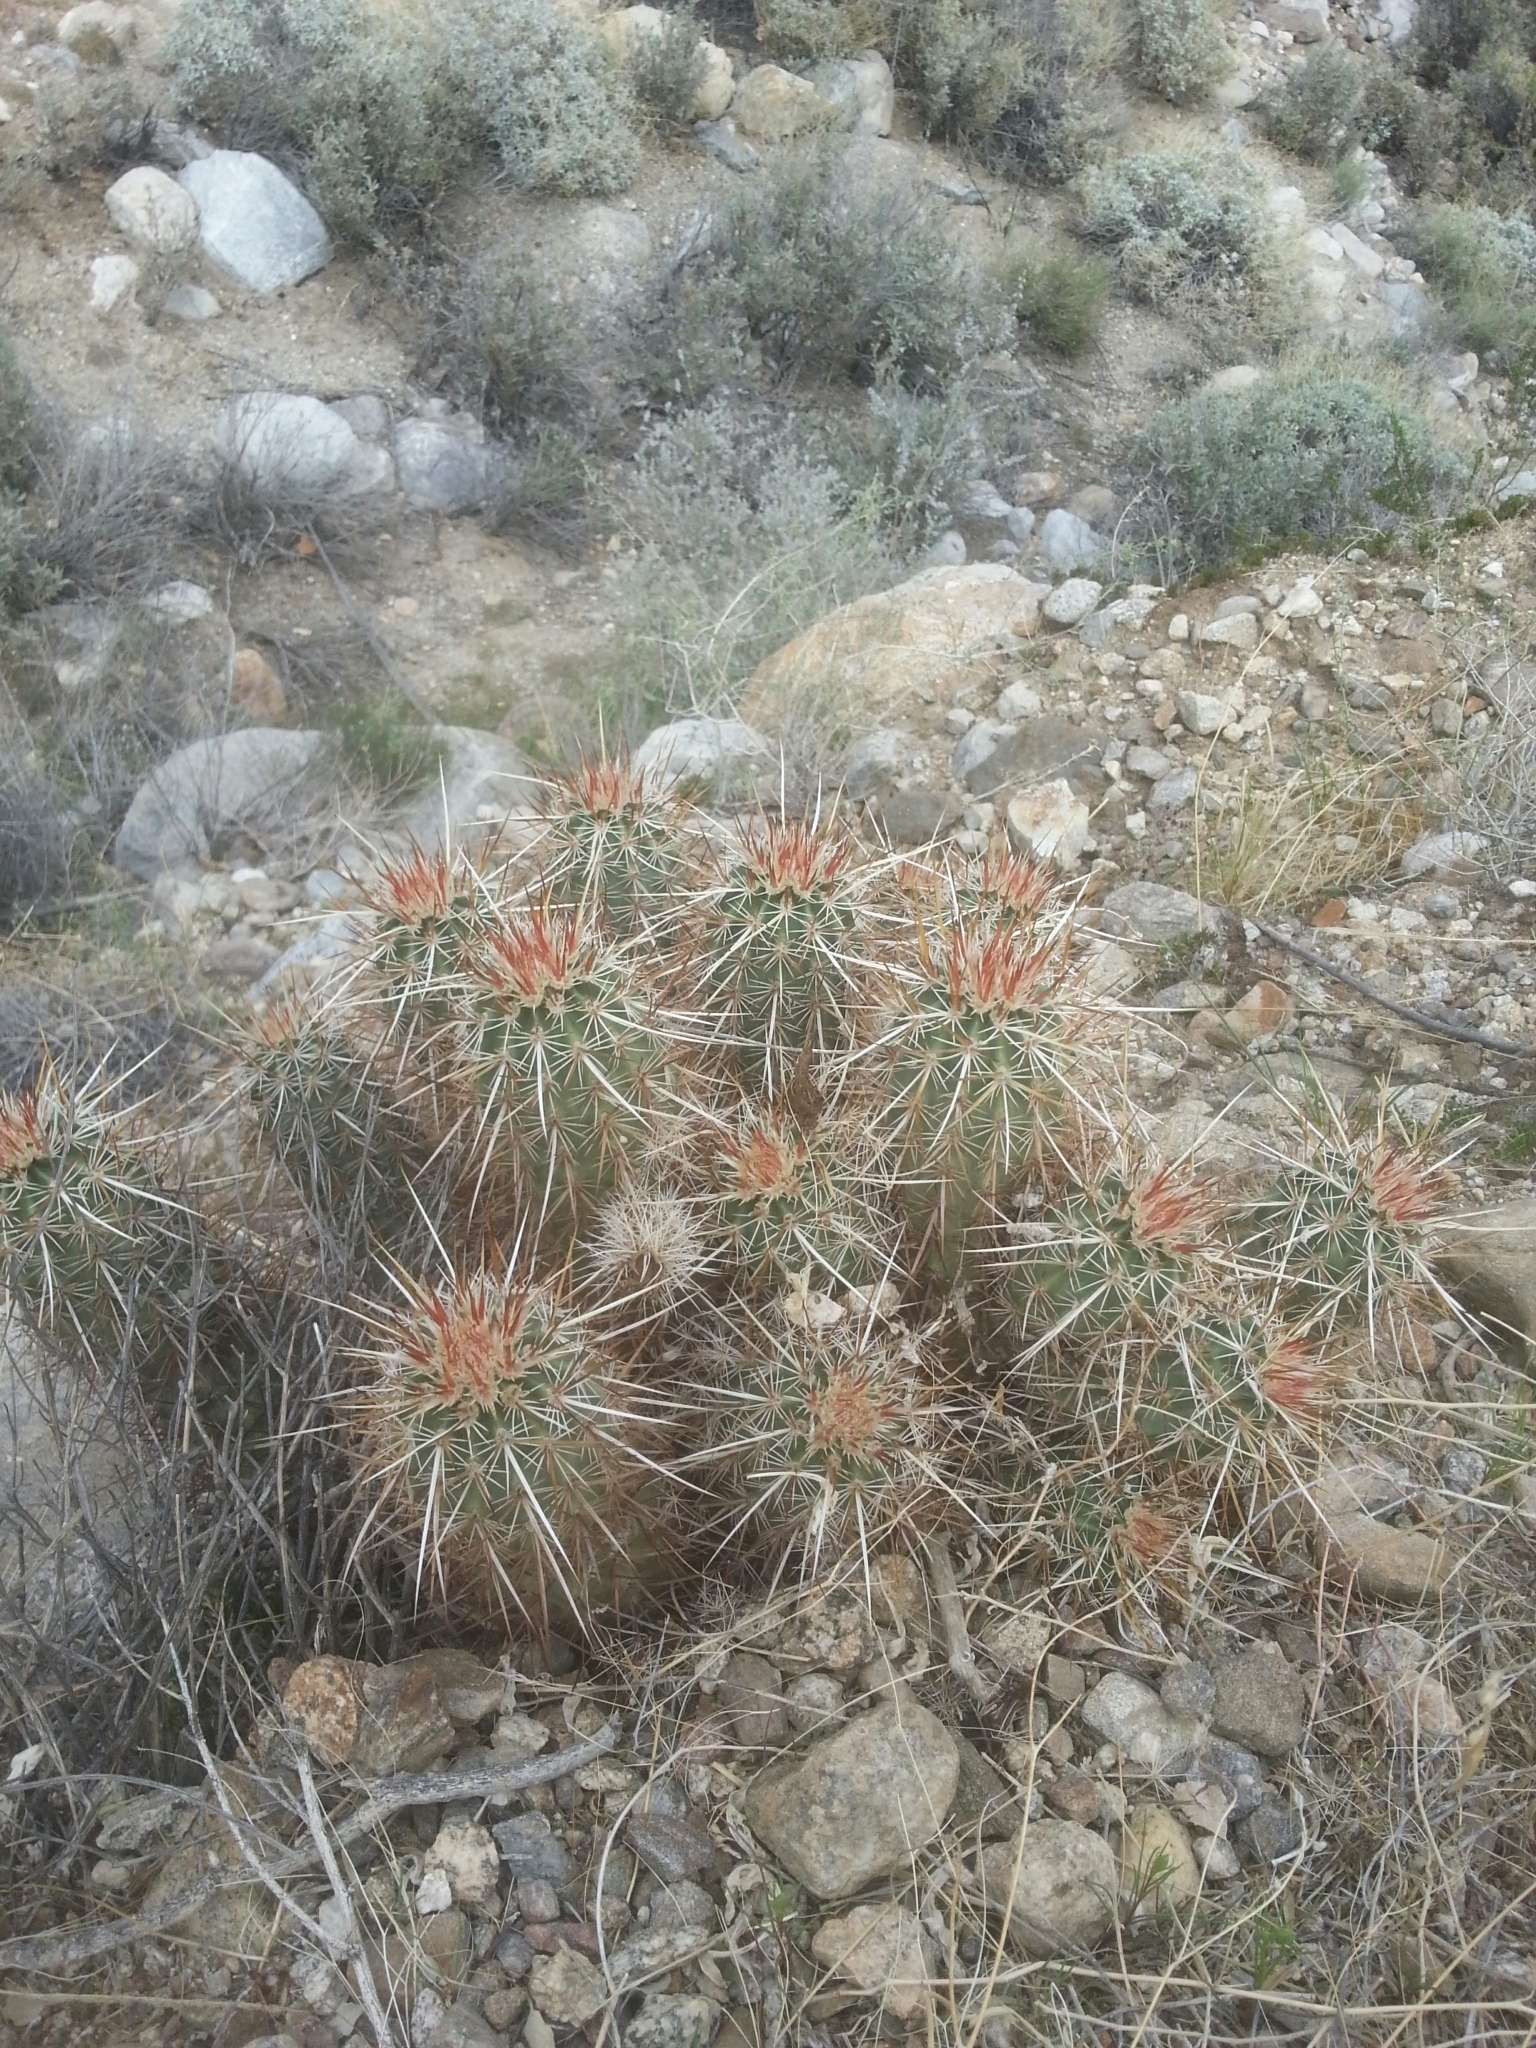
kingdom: Plantae
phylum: Tracheophyta
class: Magnoliopsida
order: Caryophyllales
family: Cactaceae
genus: Echinocereus
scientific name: Echinocereus engelmannii
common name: Engelmann's hedgehog cactus
